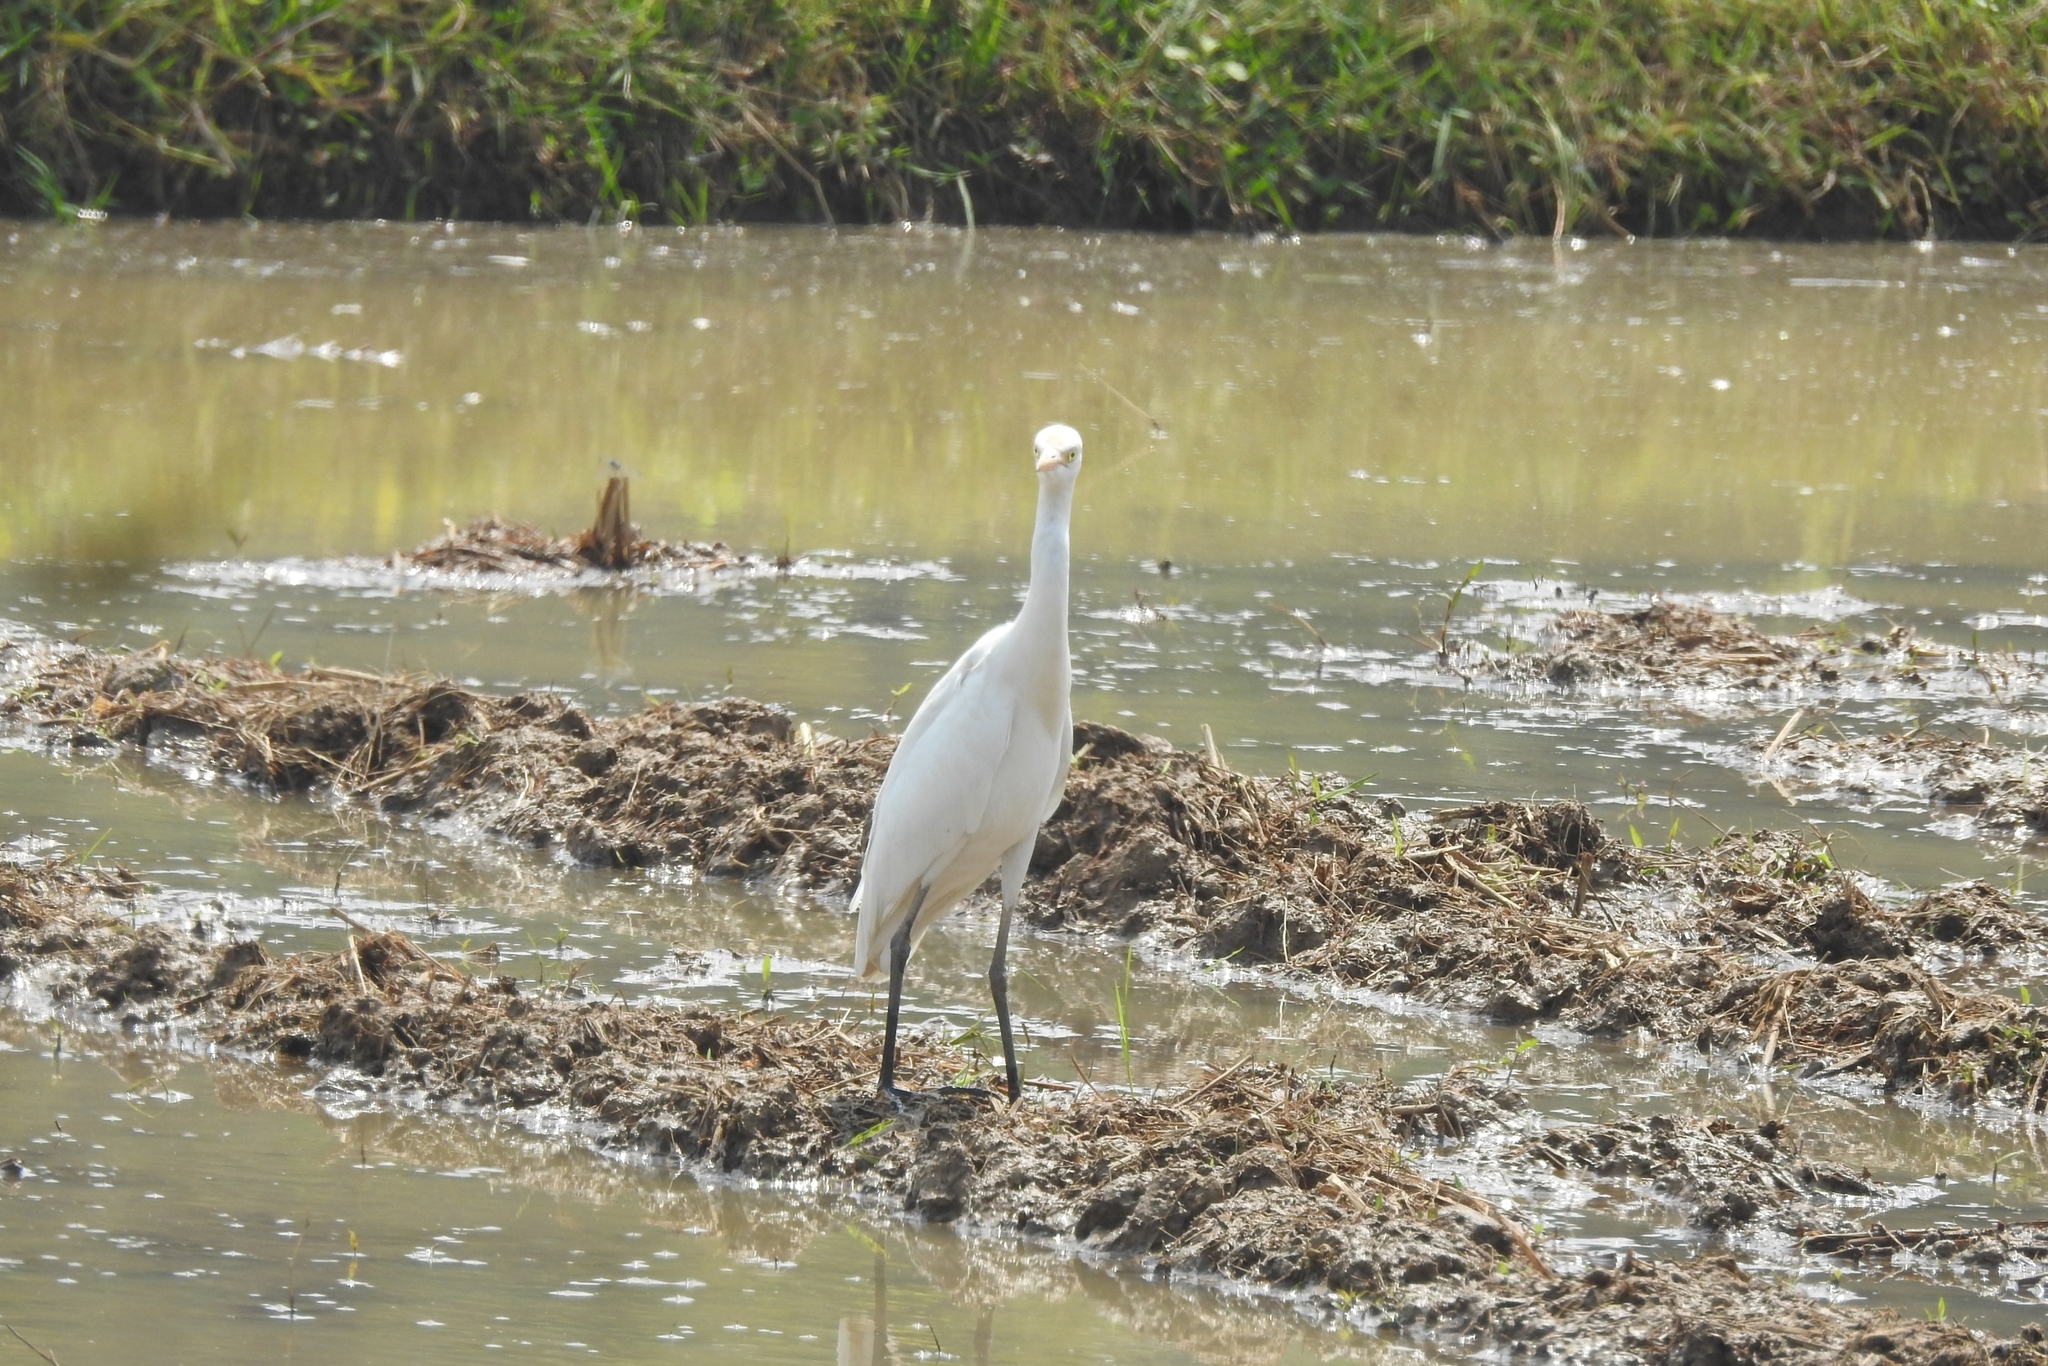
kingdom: Animalia
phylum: Chordata
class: Aves
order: Pelecaniformes
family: Ardeidae
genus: Egretta
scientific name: Egretta intermedia
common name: Intermediate egret
